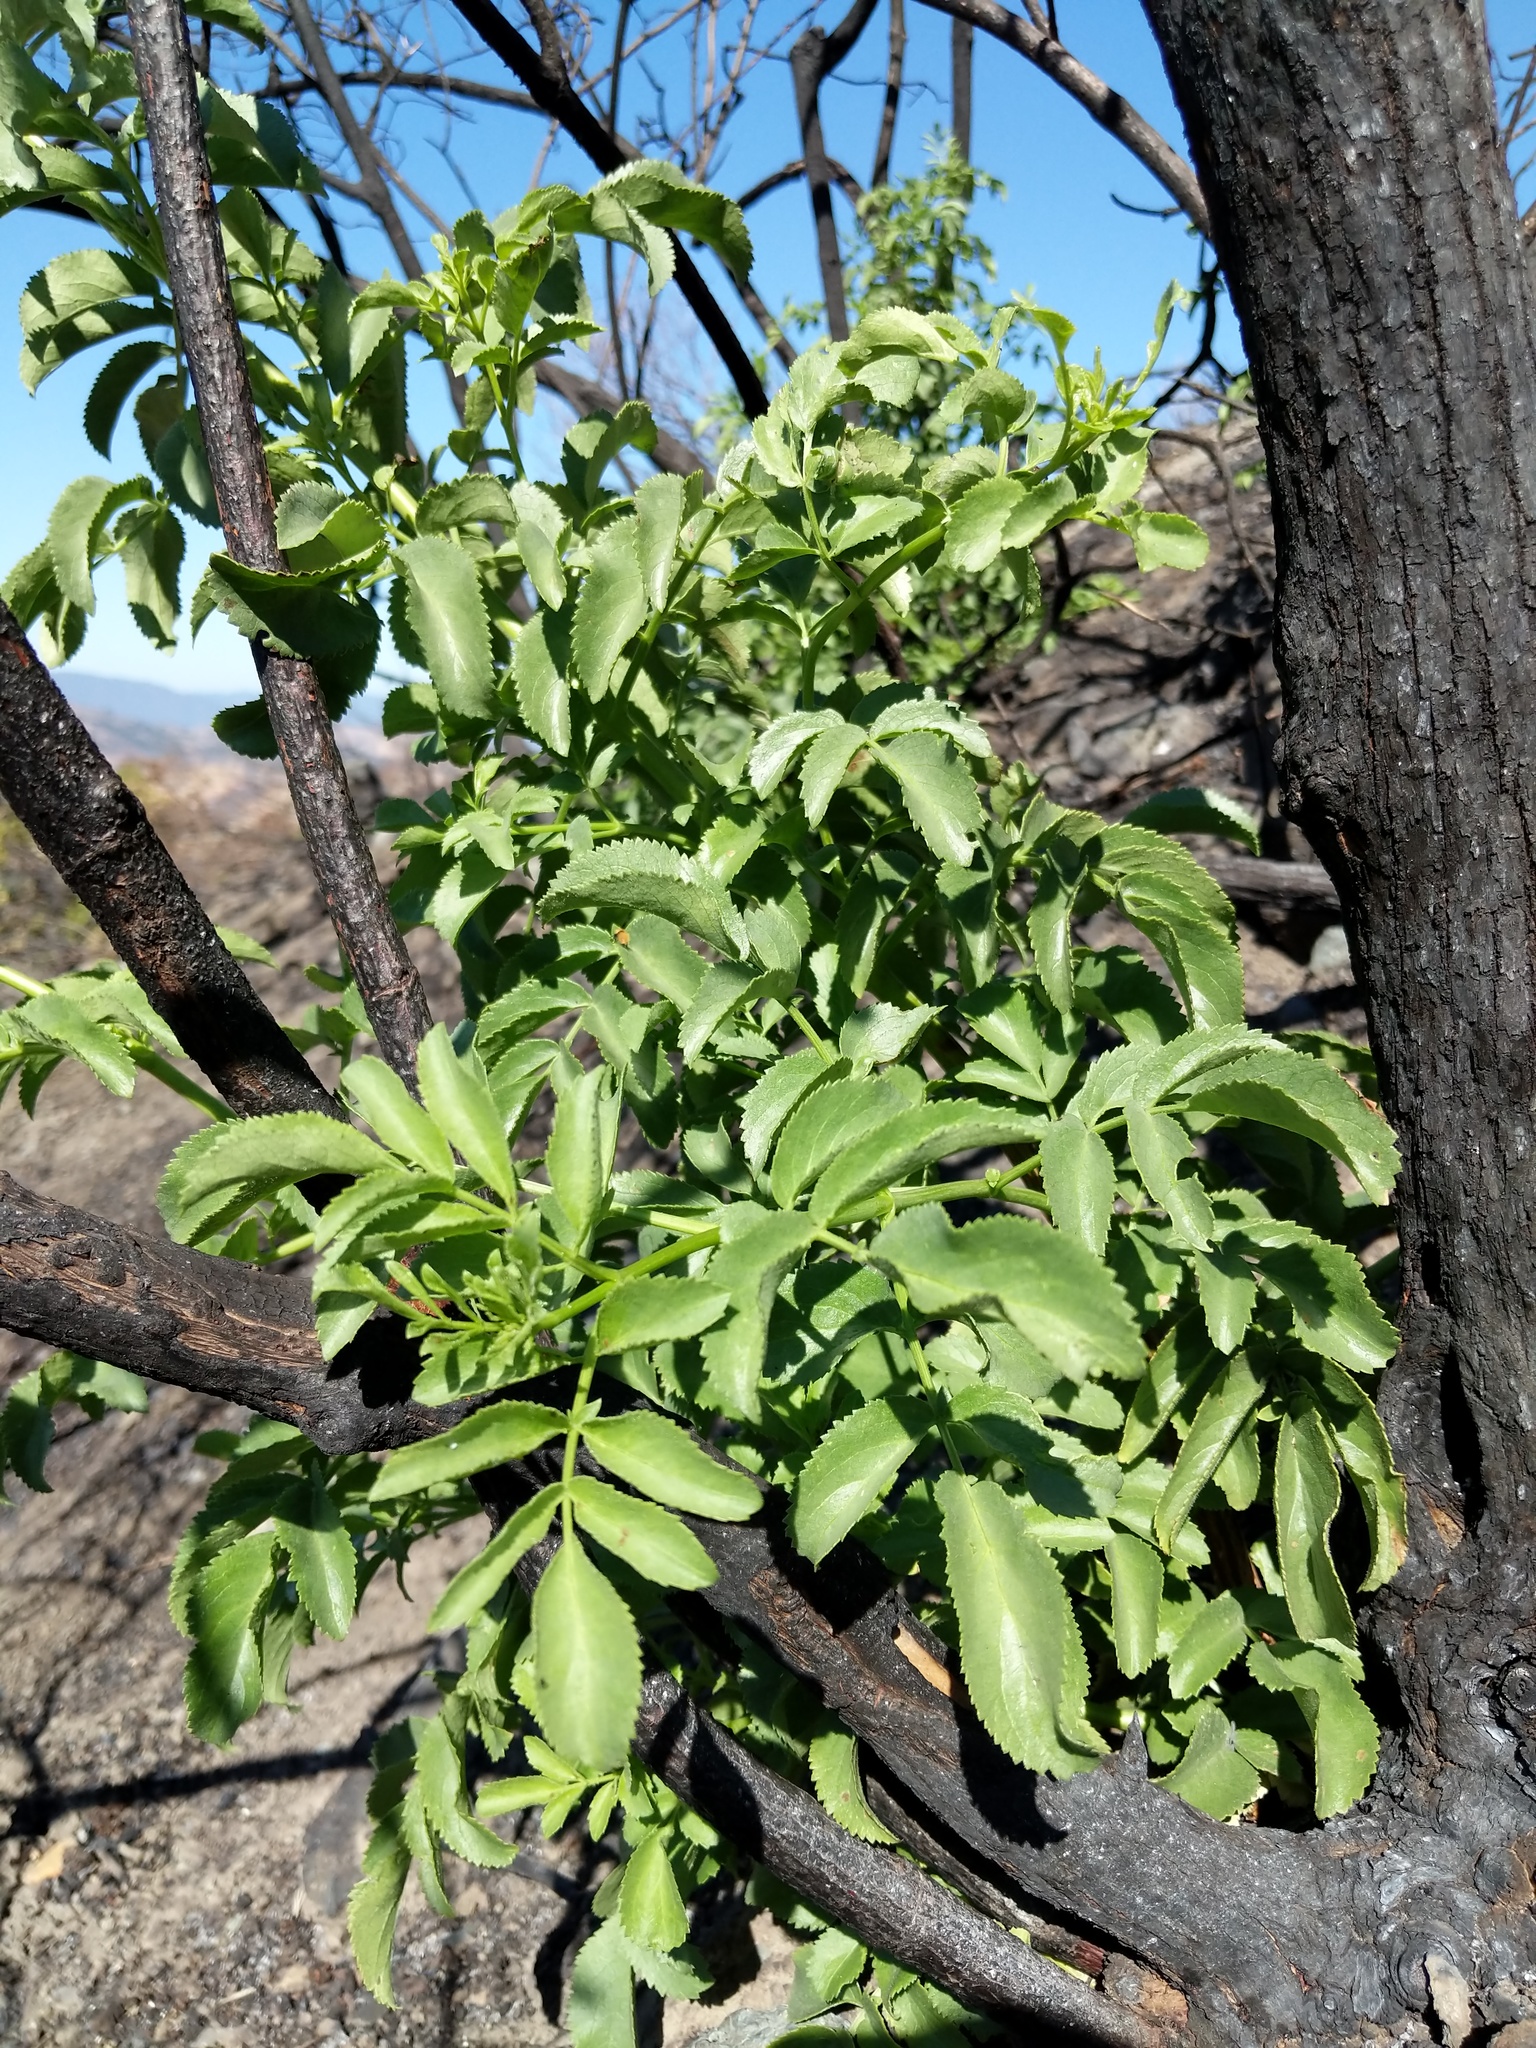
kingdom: Plantae
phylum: Tracheophyta
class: Magnoliopsida
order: Dipsacales
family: Viburnaceae
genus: Sambucus
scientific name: Sambucus cerulea
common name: Blue elder
